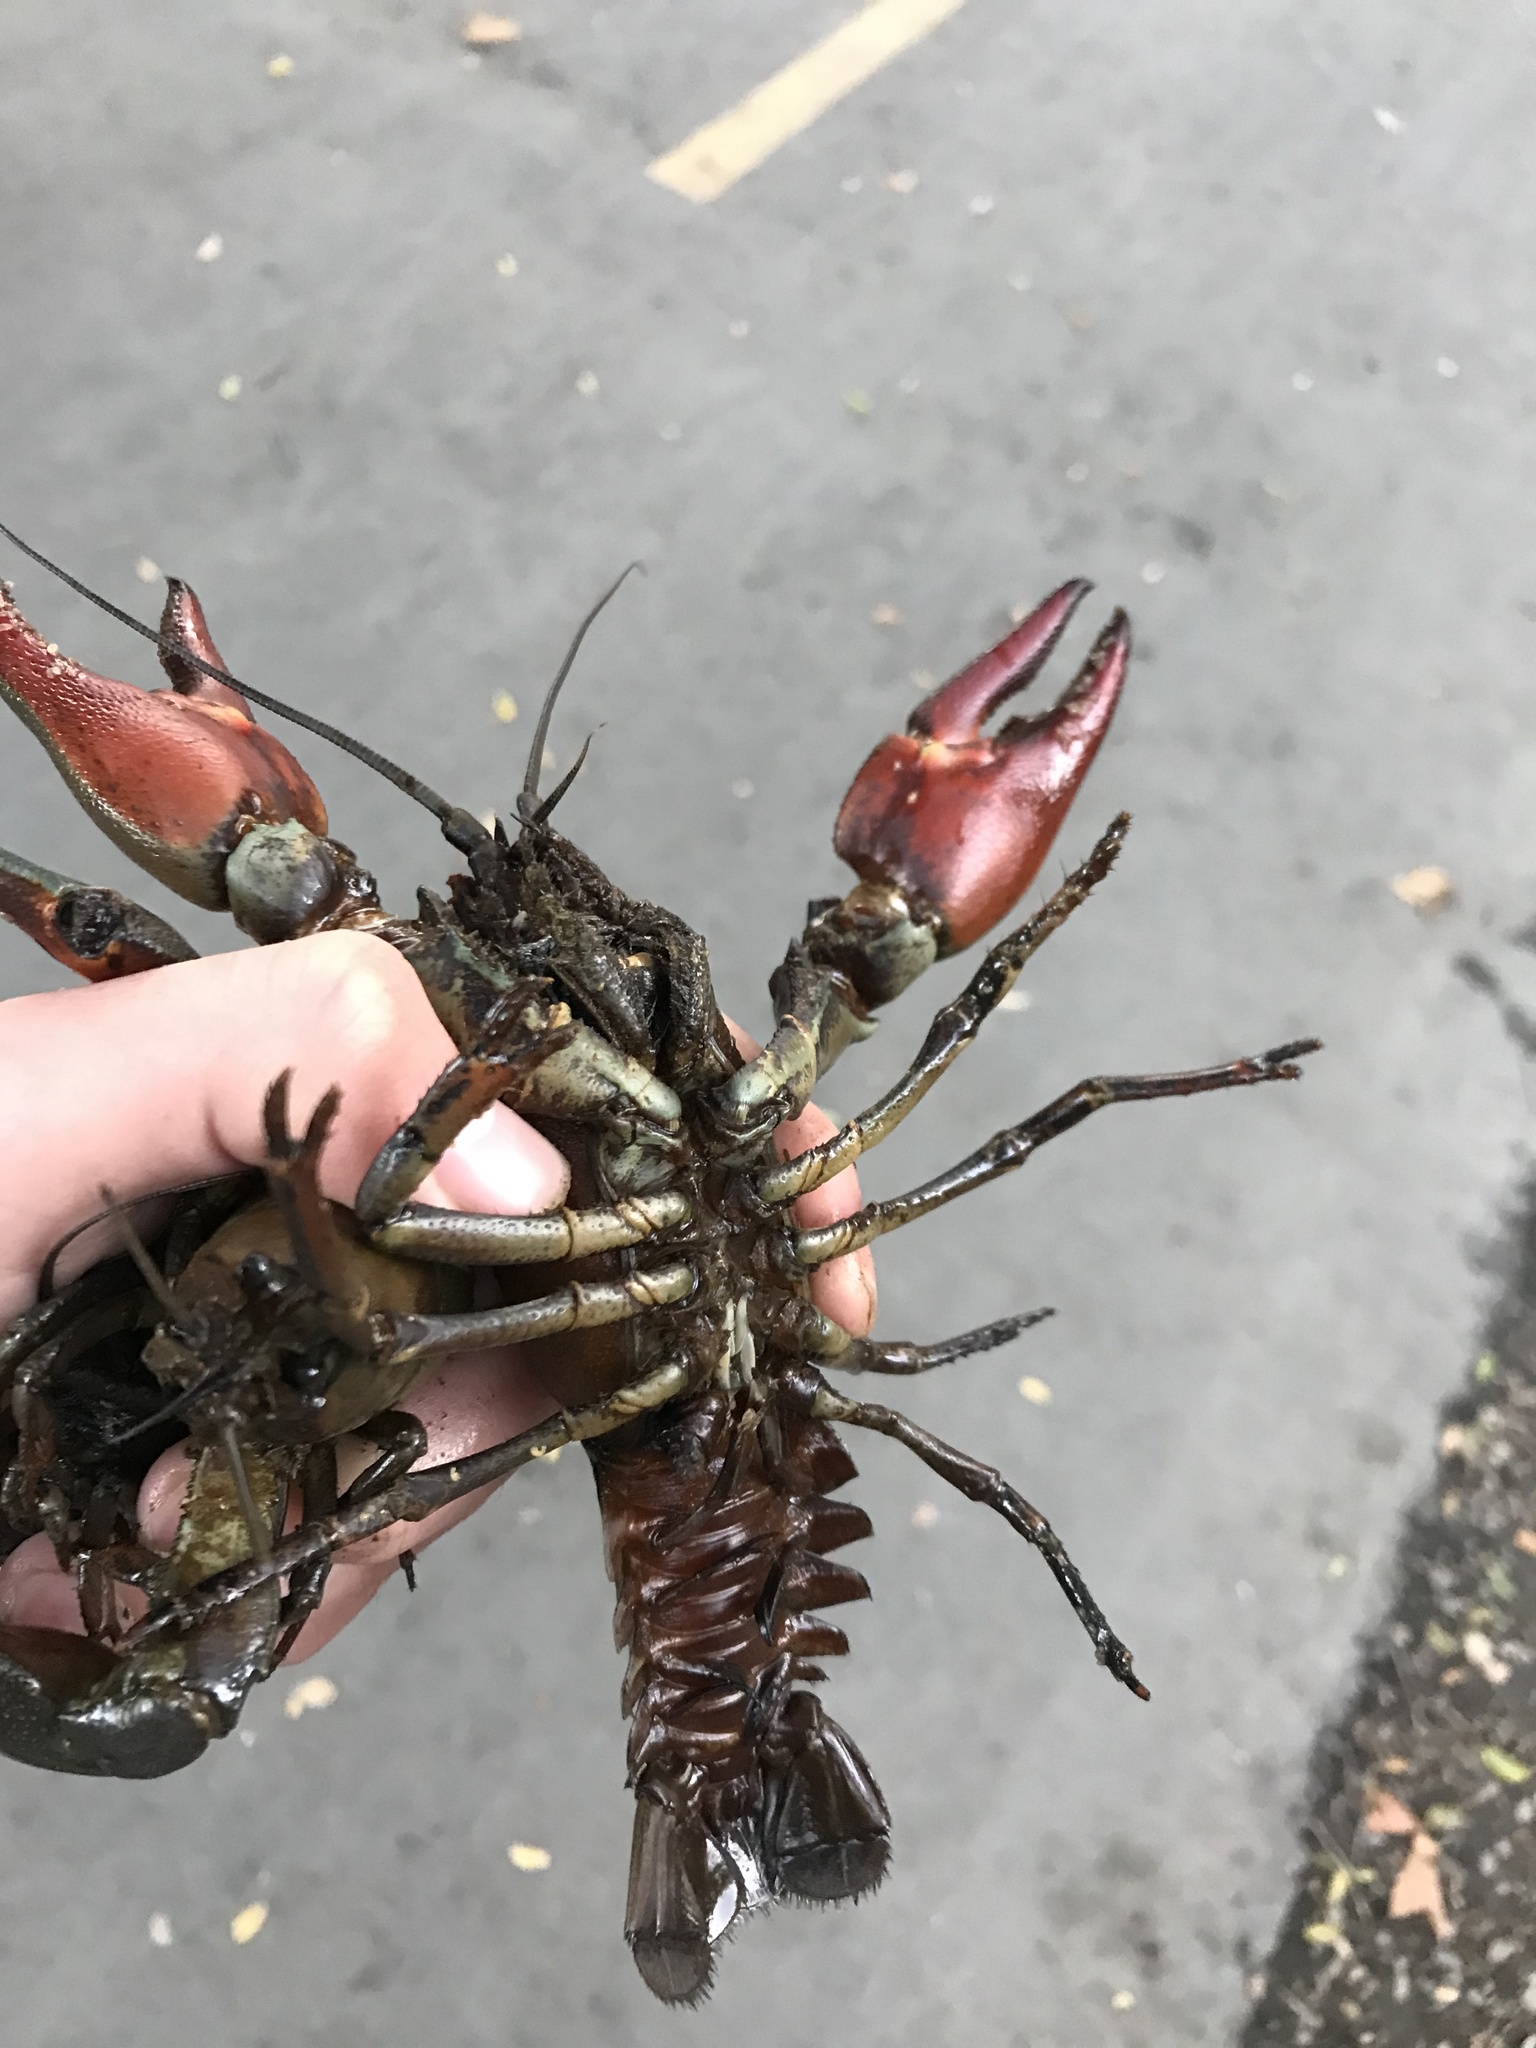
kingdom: Animalia
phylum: Arthropoda
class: Malacostraca
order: Decapoda
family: Astacidae
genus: Pacifastacus
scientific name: Pacifastacus leniusculus
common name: Signal crayfish
